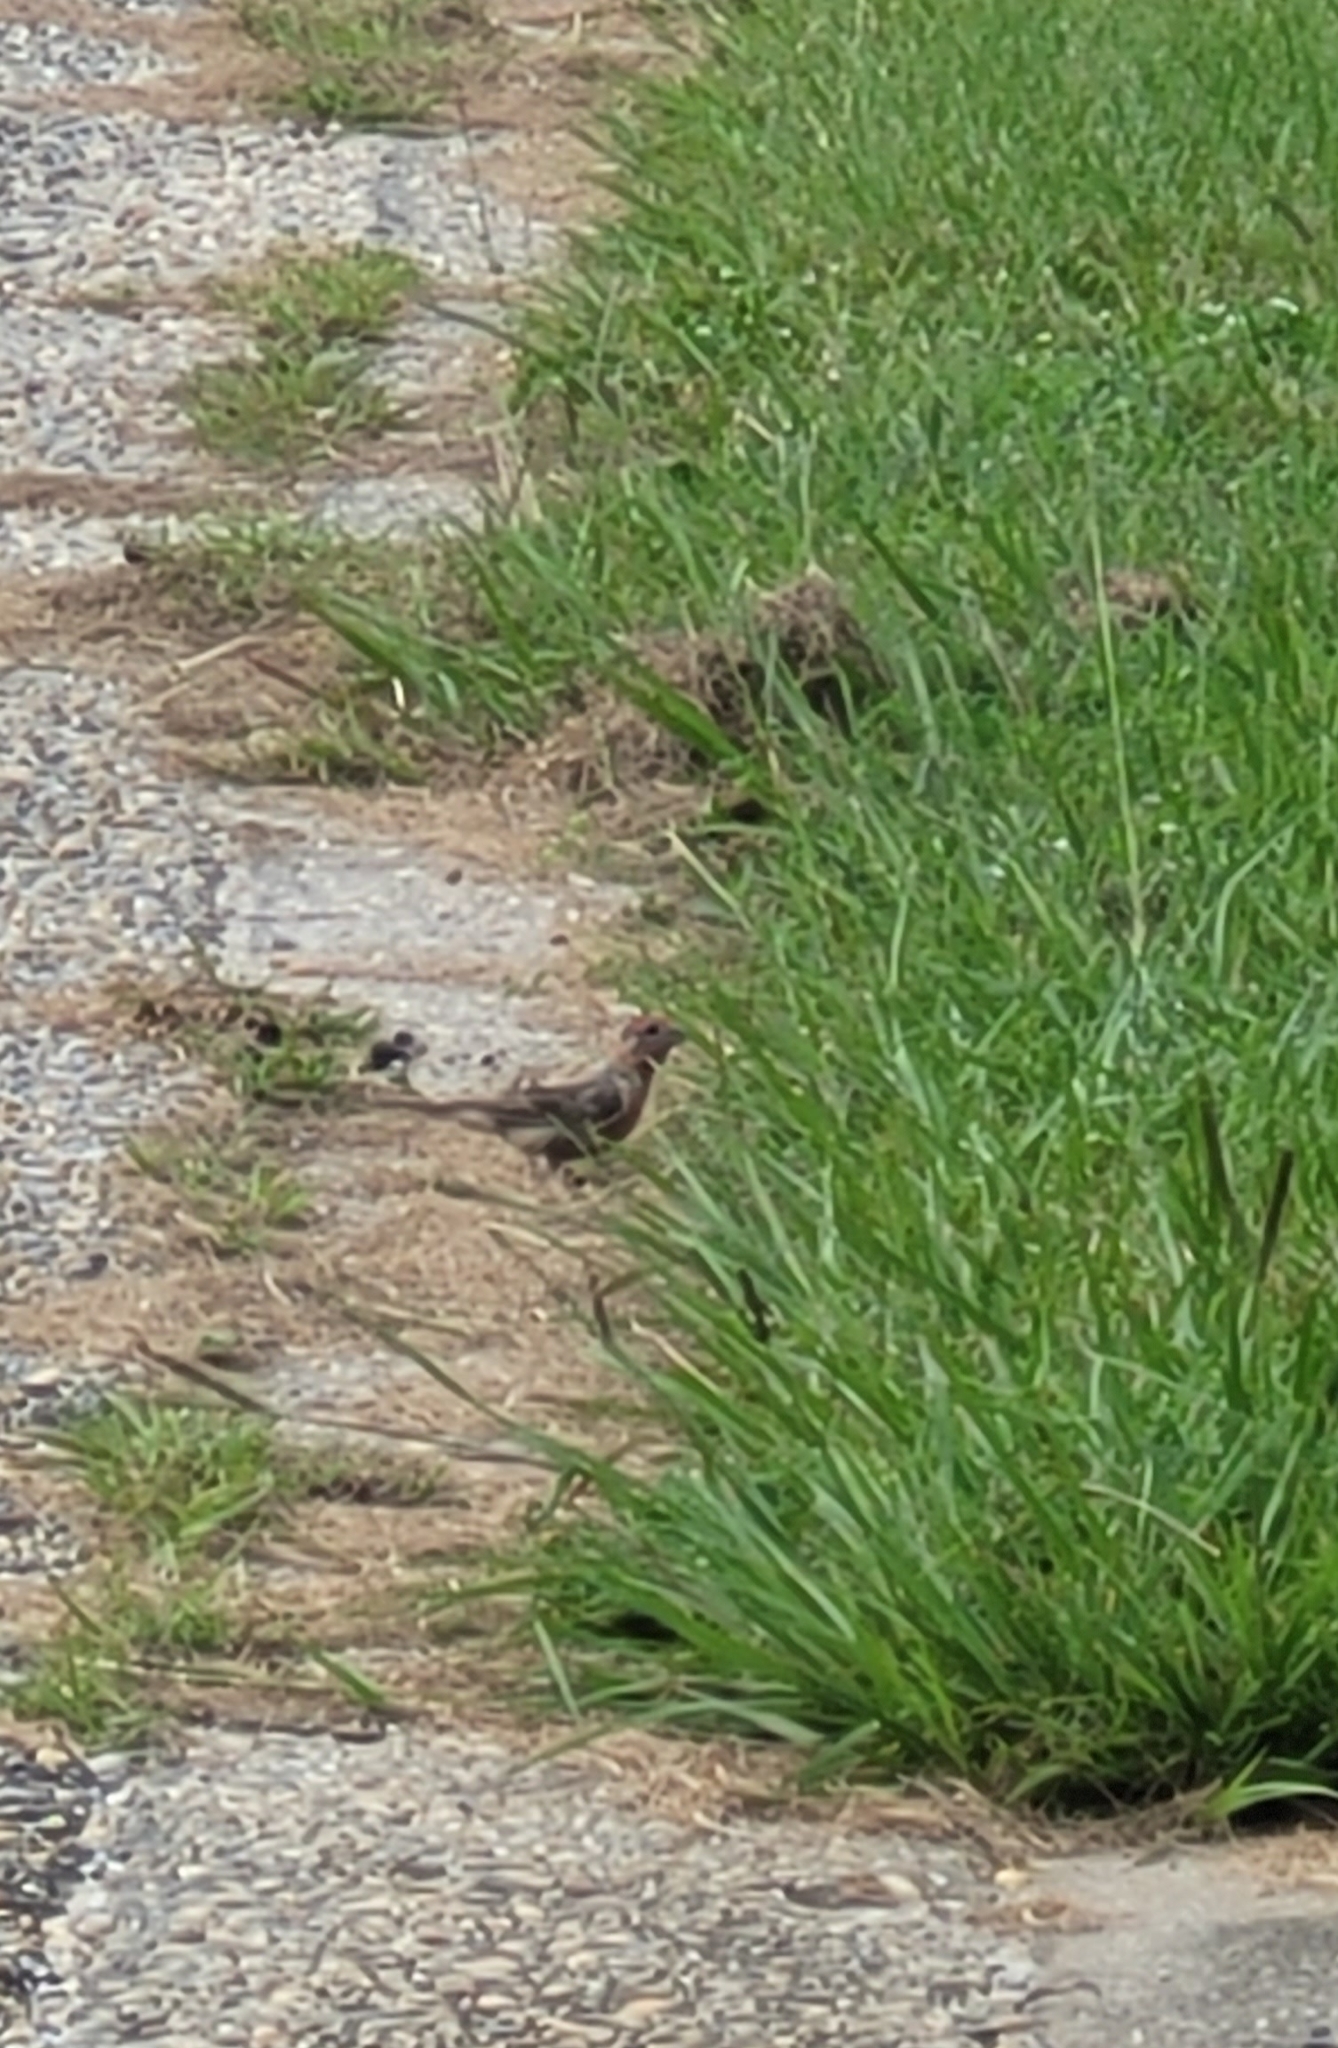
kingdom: Animalia
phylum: Chordata
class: Aves
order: Passeriformes
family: Fringillidae
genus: Haemorhous
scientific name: Haemorhous mexicanus
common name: House finch
